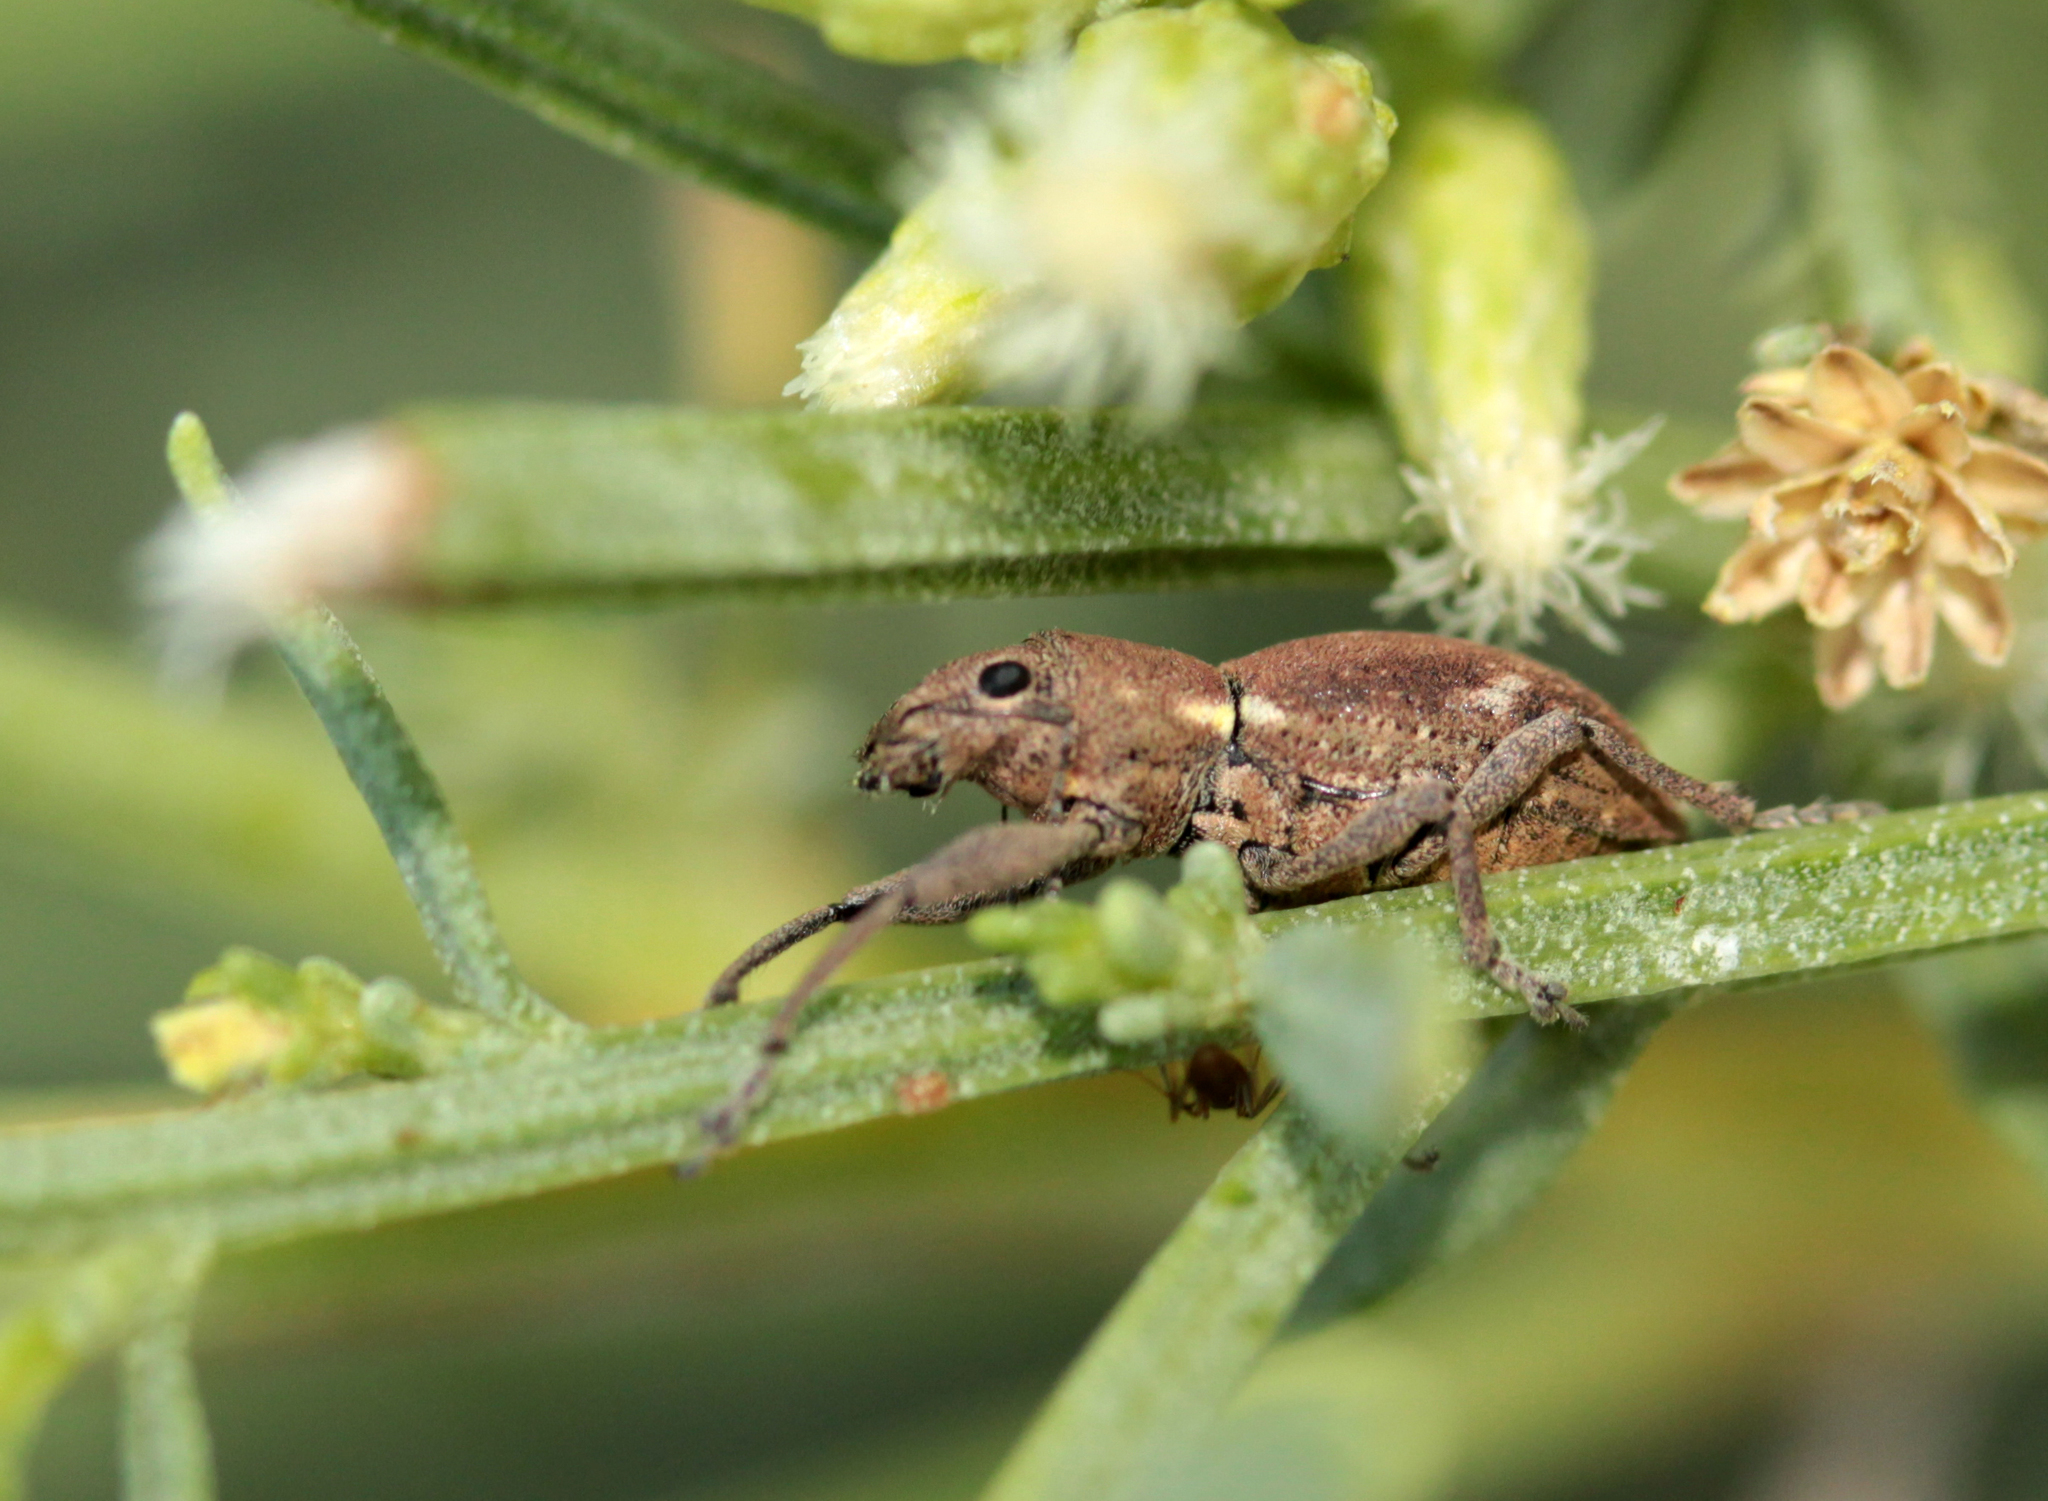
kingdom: Animalia
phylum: Arthropoda
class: Insecta
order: Coleoptera
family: Curculionidae
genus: Naupactus
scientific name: Naupactus cervinus
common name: Fuller rose beetle
